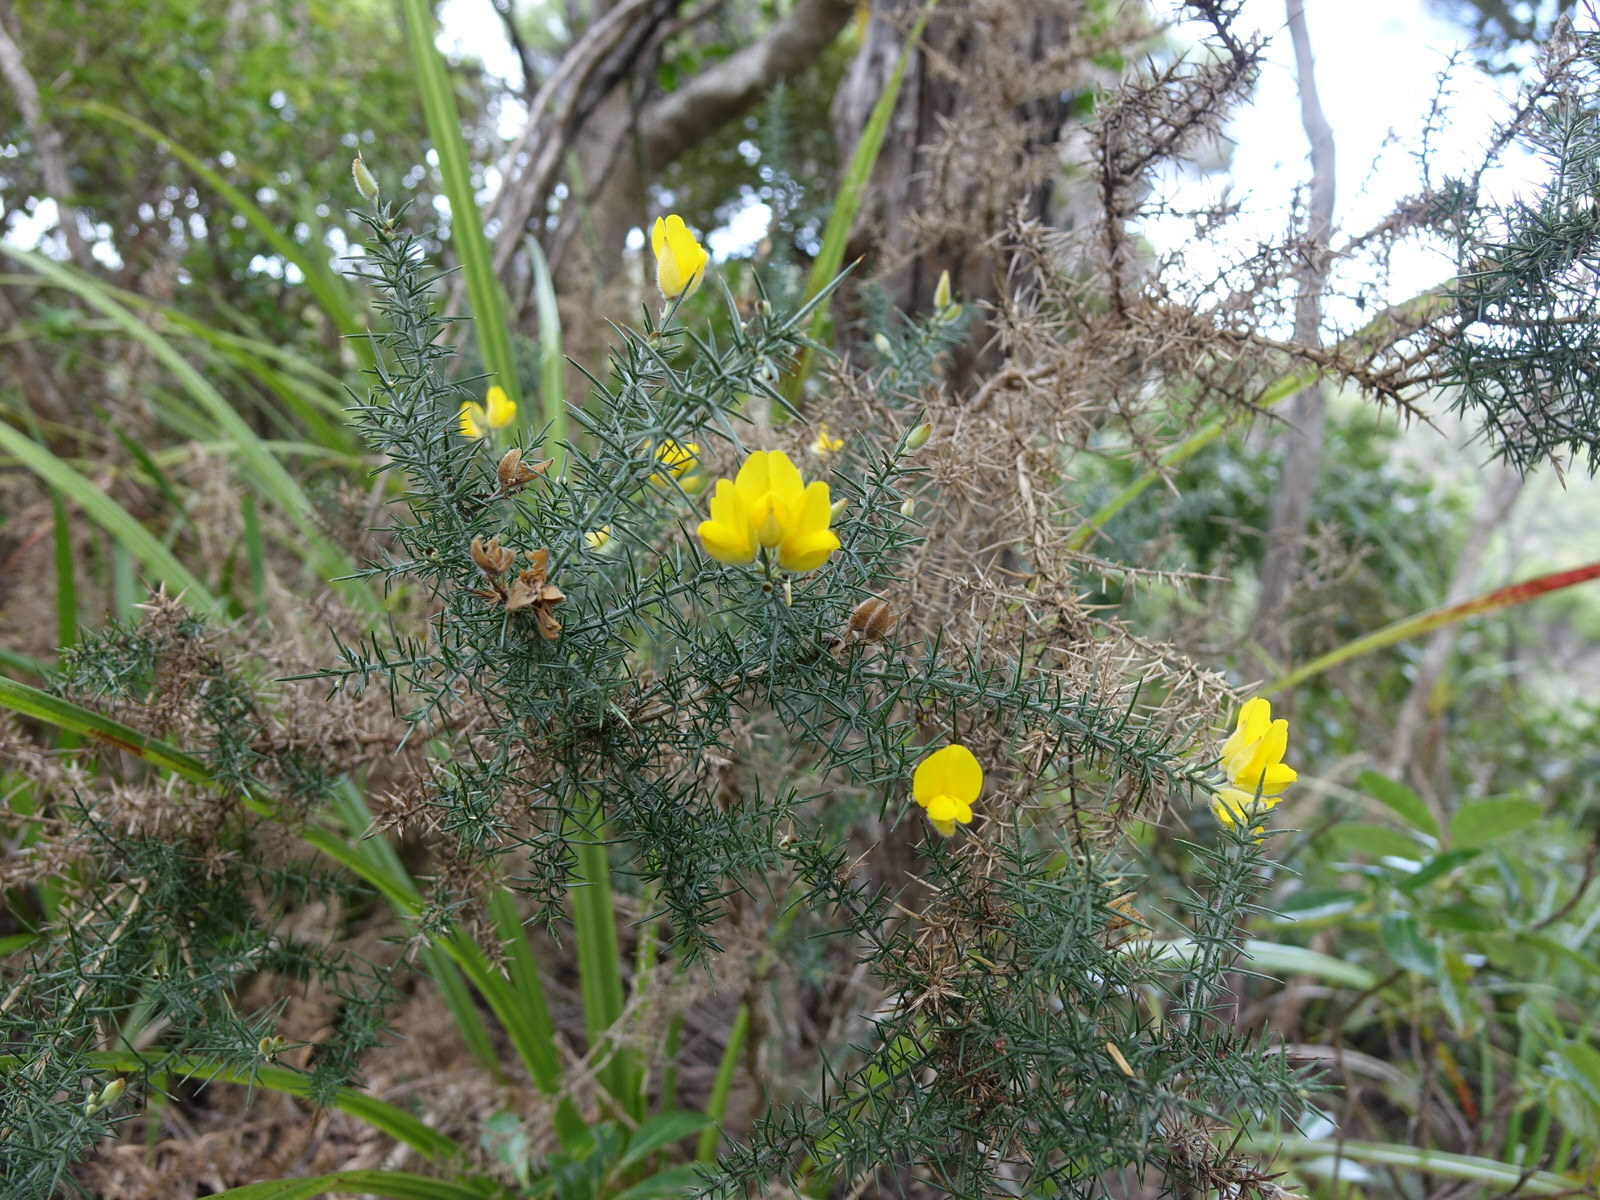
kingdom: Plantae
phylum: Tracheophyta
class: Magnoliopsida
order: Fabales
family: Fabaceae
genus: Ulex
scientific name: Ulex europaeus
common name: Common gorse
